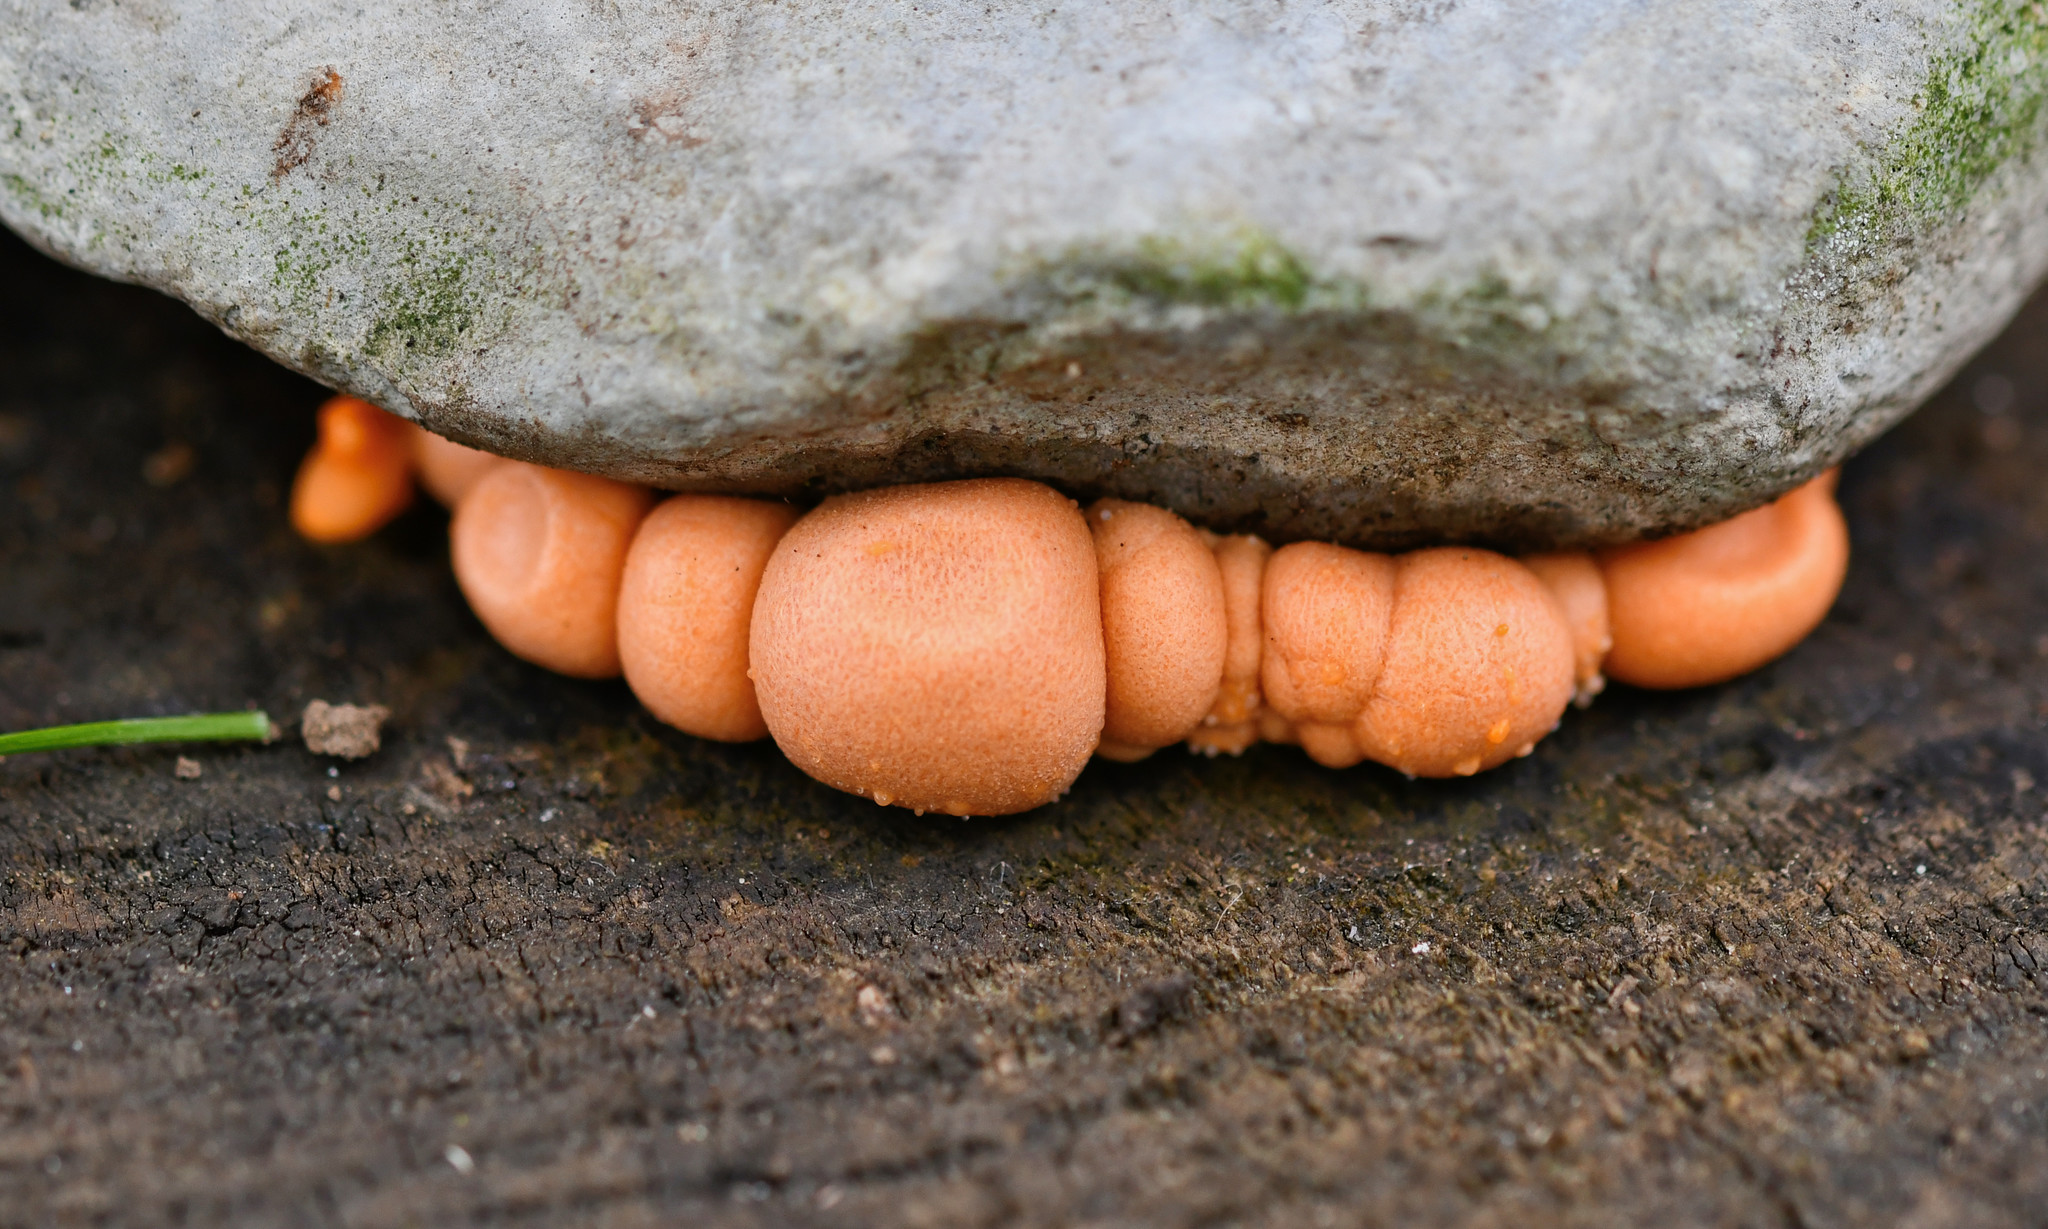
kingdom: Protozoa
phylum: Mycetozoa
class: Myxomycetes
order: Cribrariales
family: Tubiferaceae
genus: Lycogala
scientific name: Lycogala epidendrum
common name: Wolf's milk
